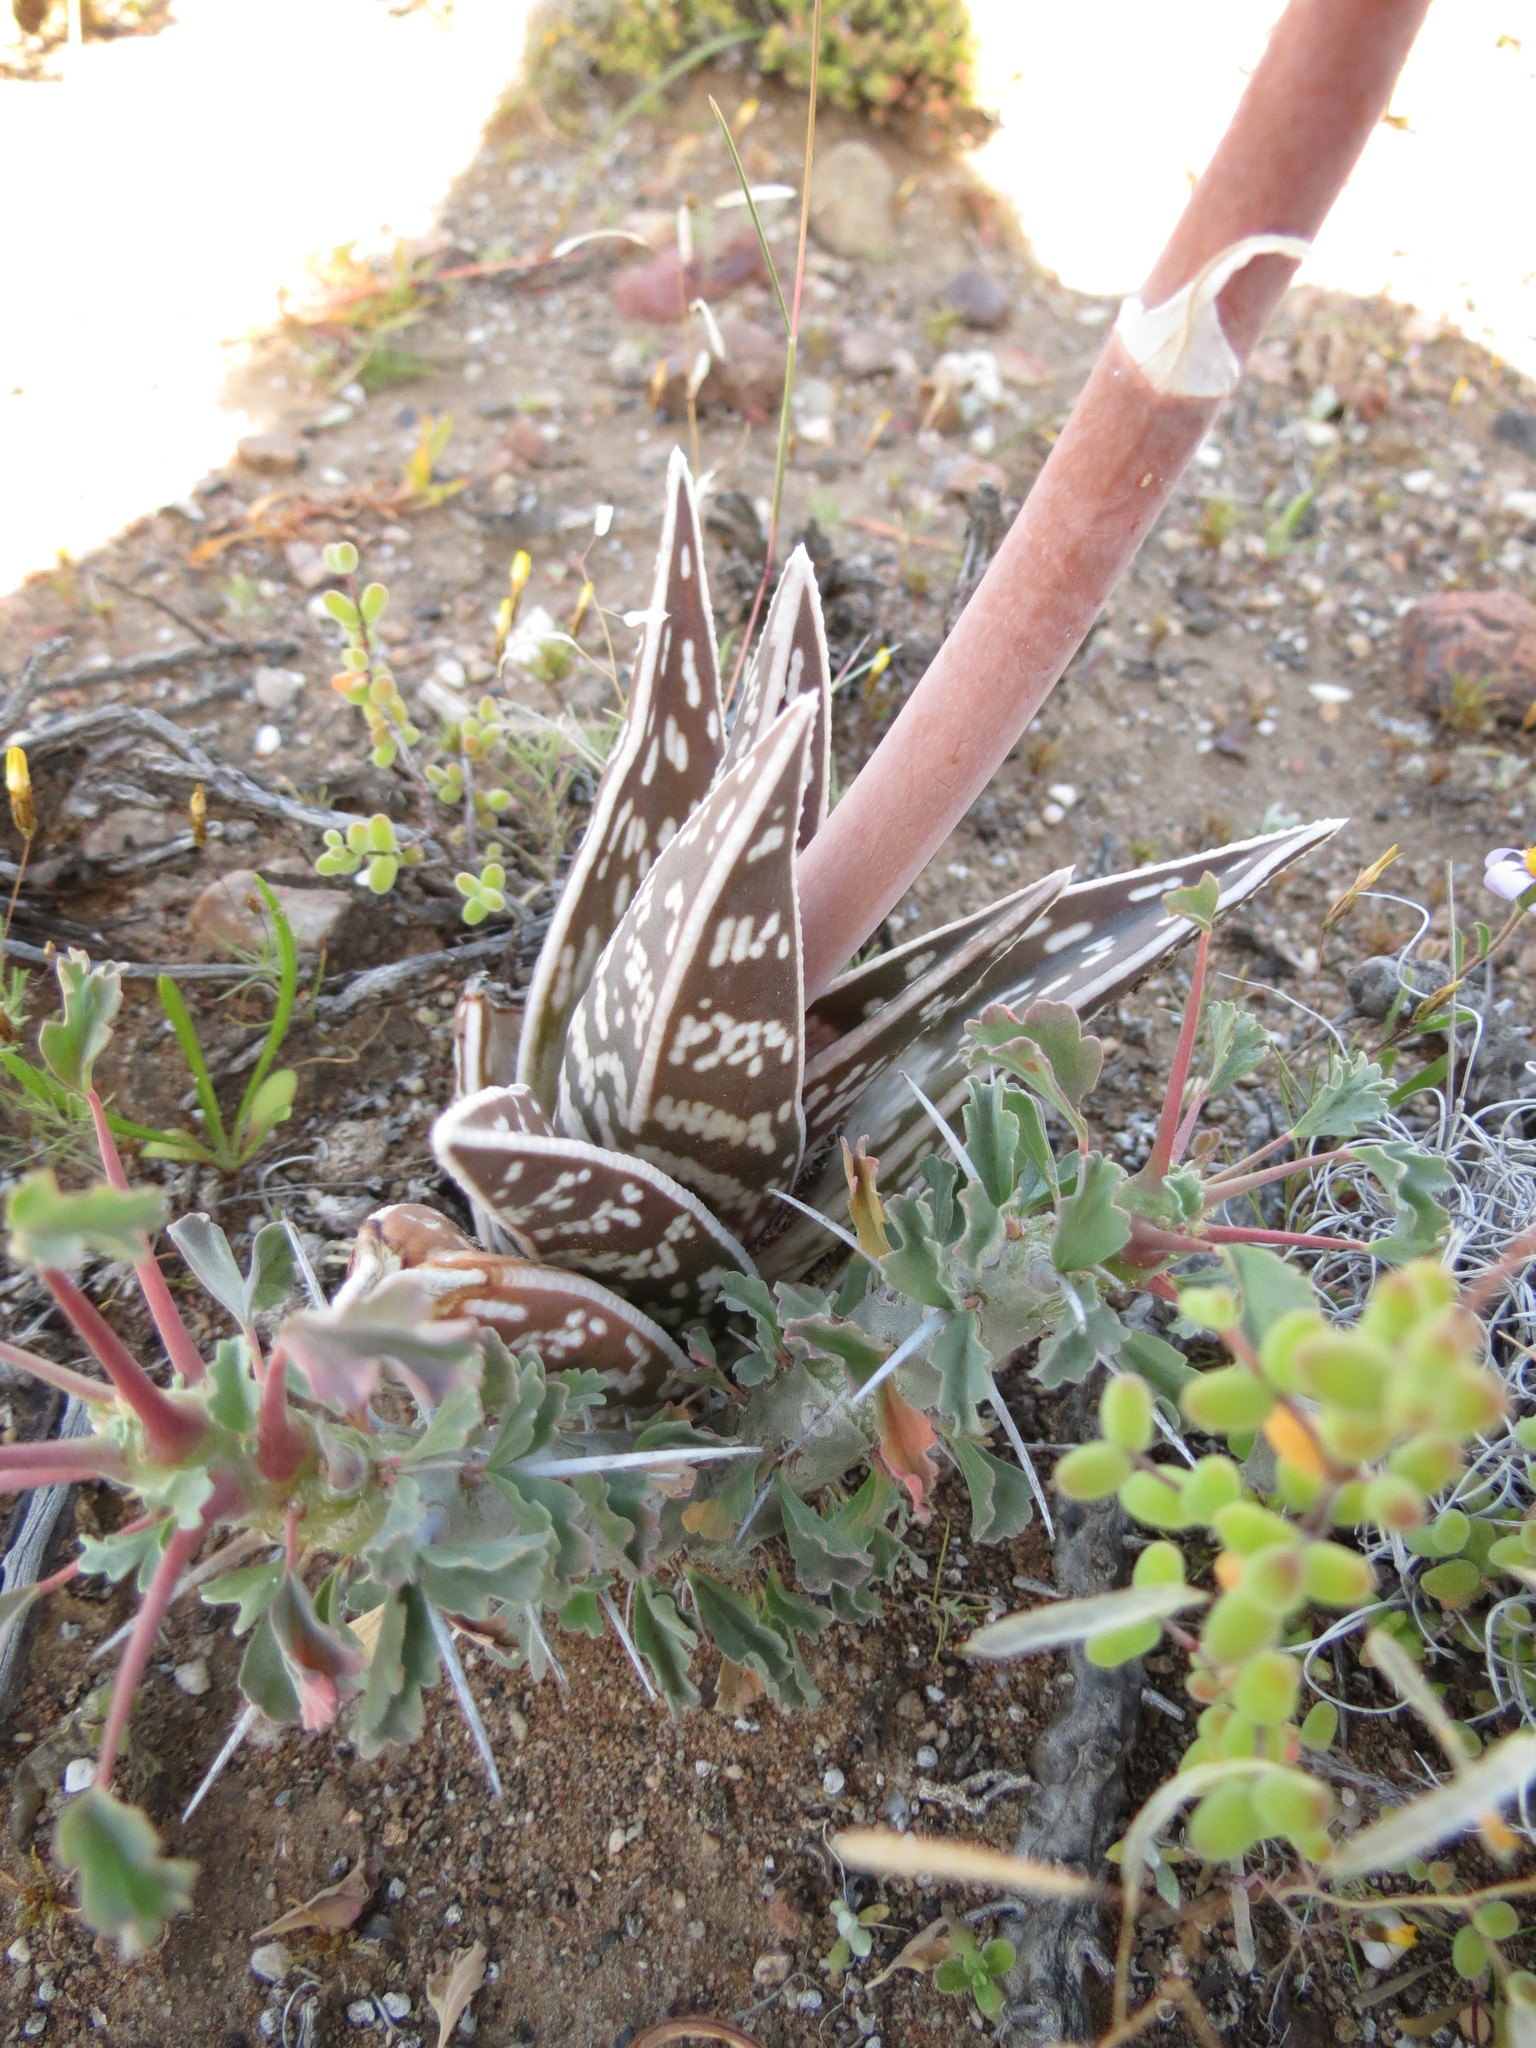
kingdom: Plantae
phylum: Tracheophyta
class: Liliopsida
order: Asparagales
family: Asphodelaceae
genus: Gonialoe
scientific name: Gonialoe variegata
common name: Aloe variegata
